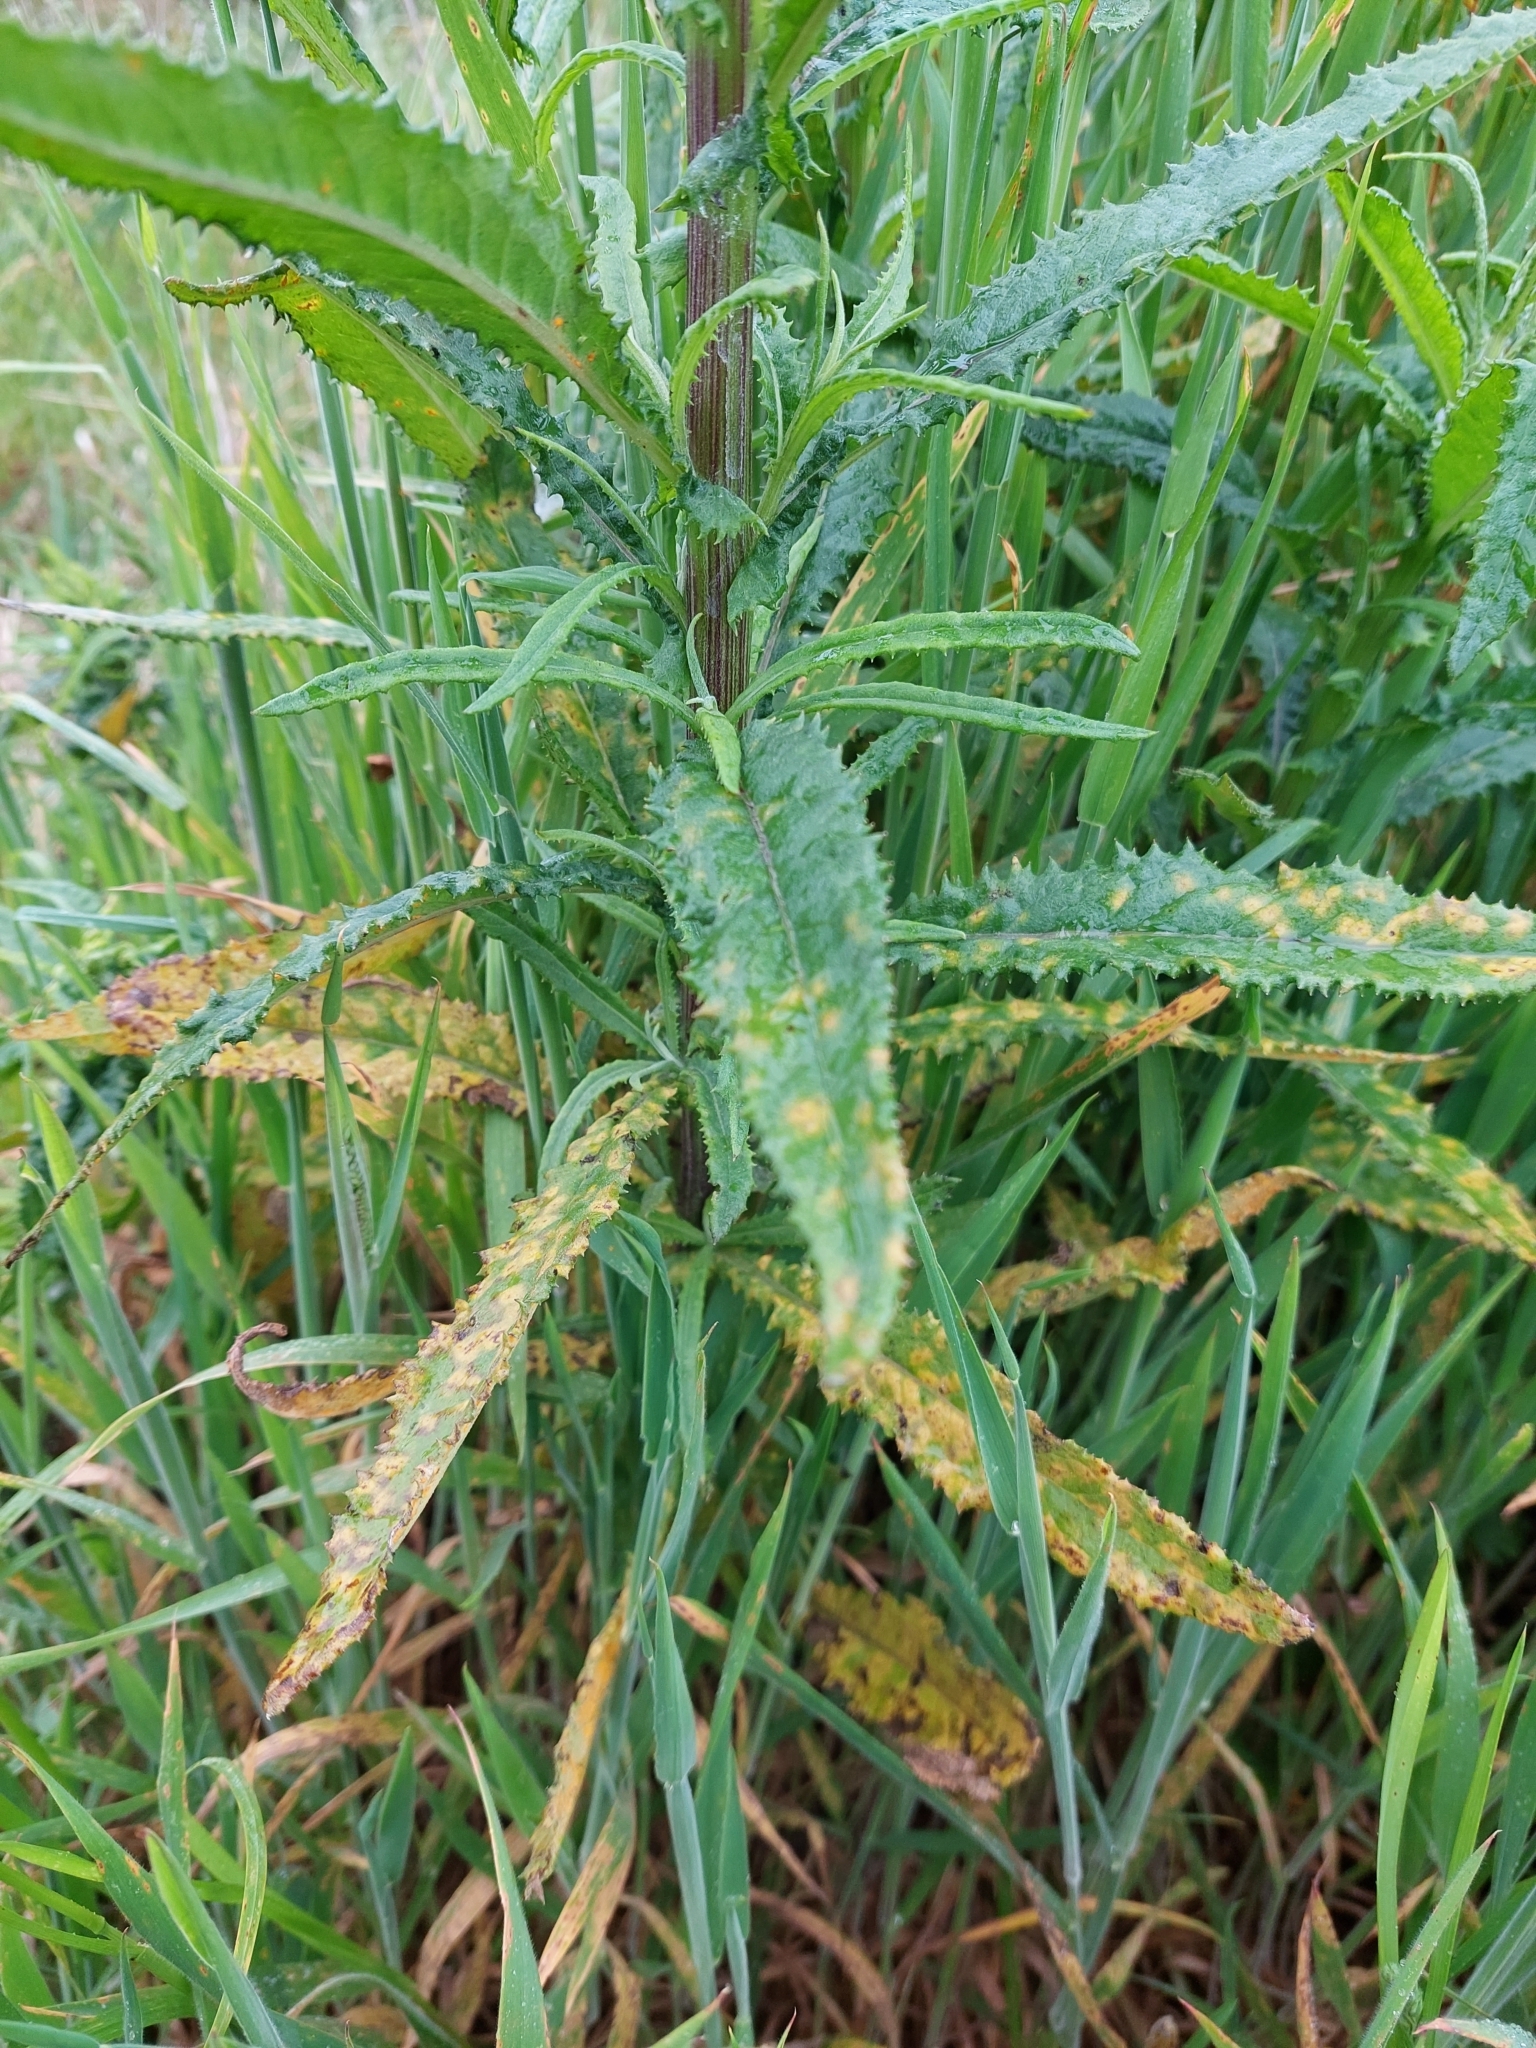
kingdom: Fungi
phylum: Basidiomycota
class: Pucciniomycetes
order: Pucciniales
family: Coleosporiaceae
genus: Coleosporium
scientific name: Coleosporium tussilaginis
